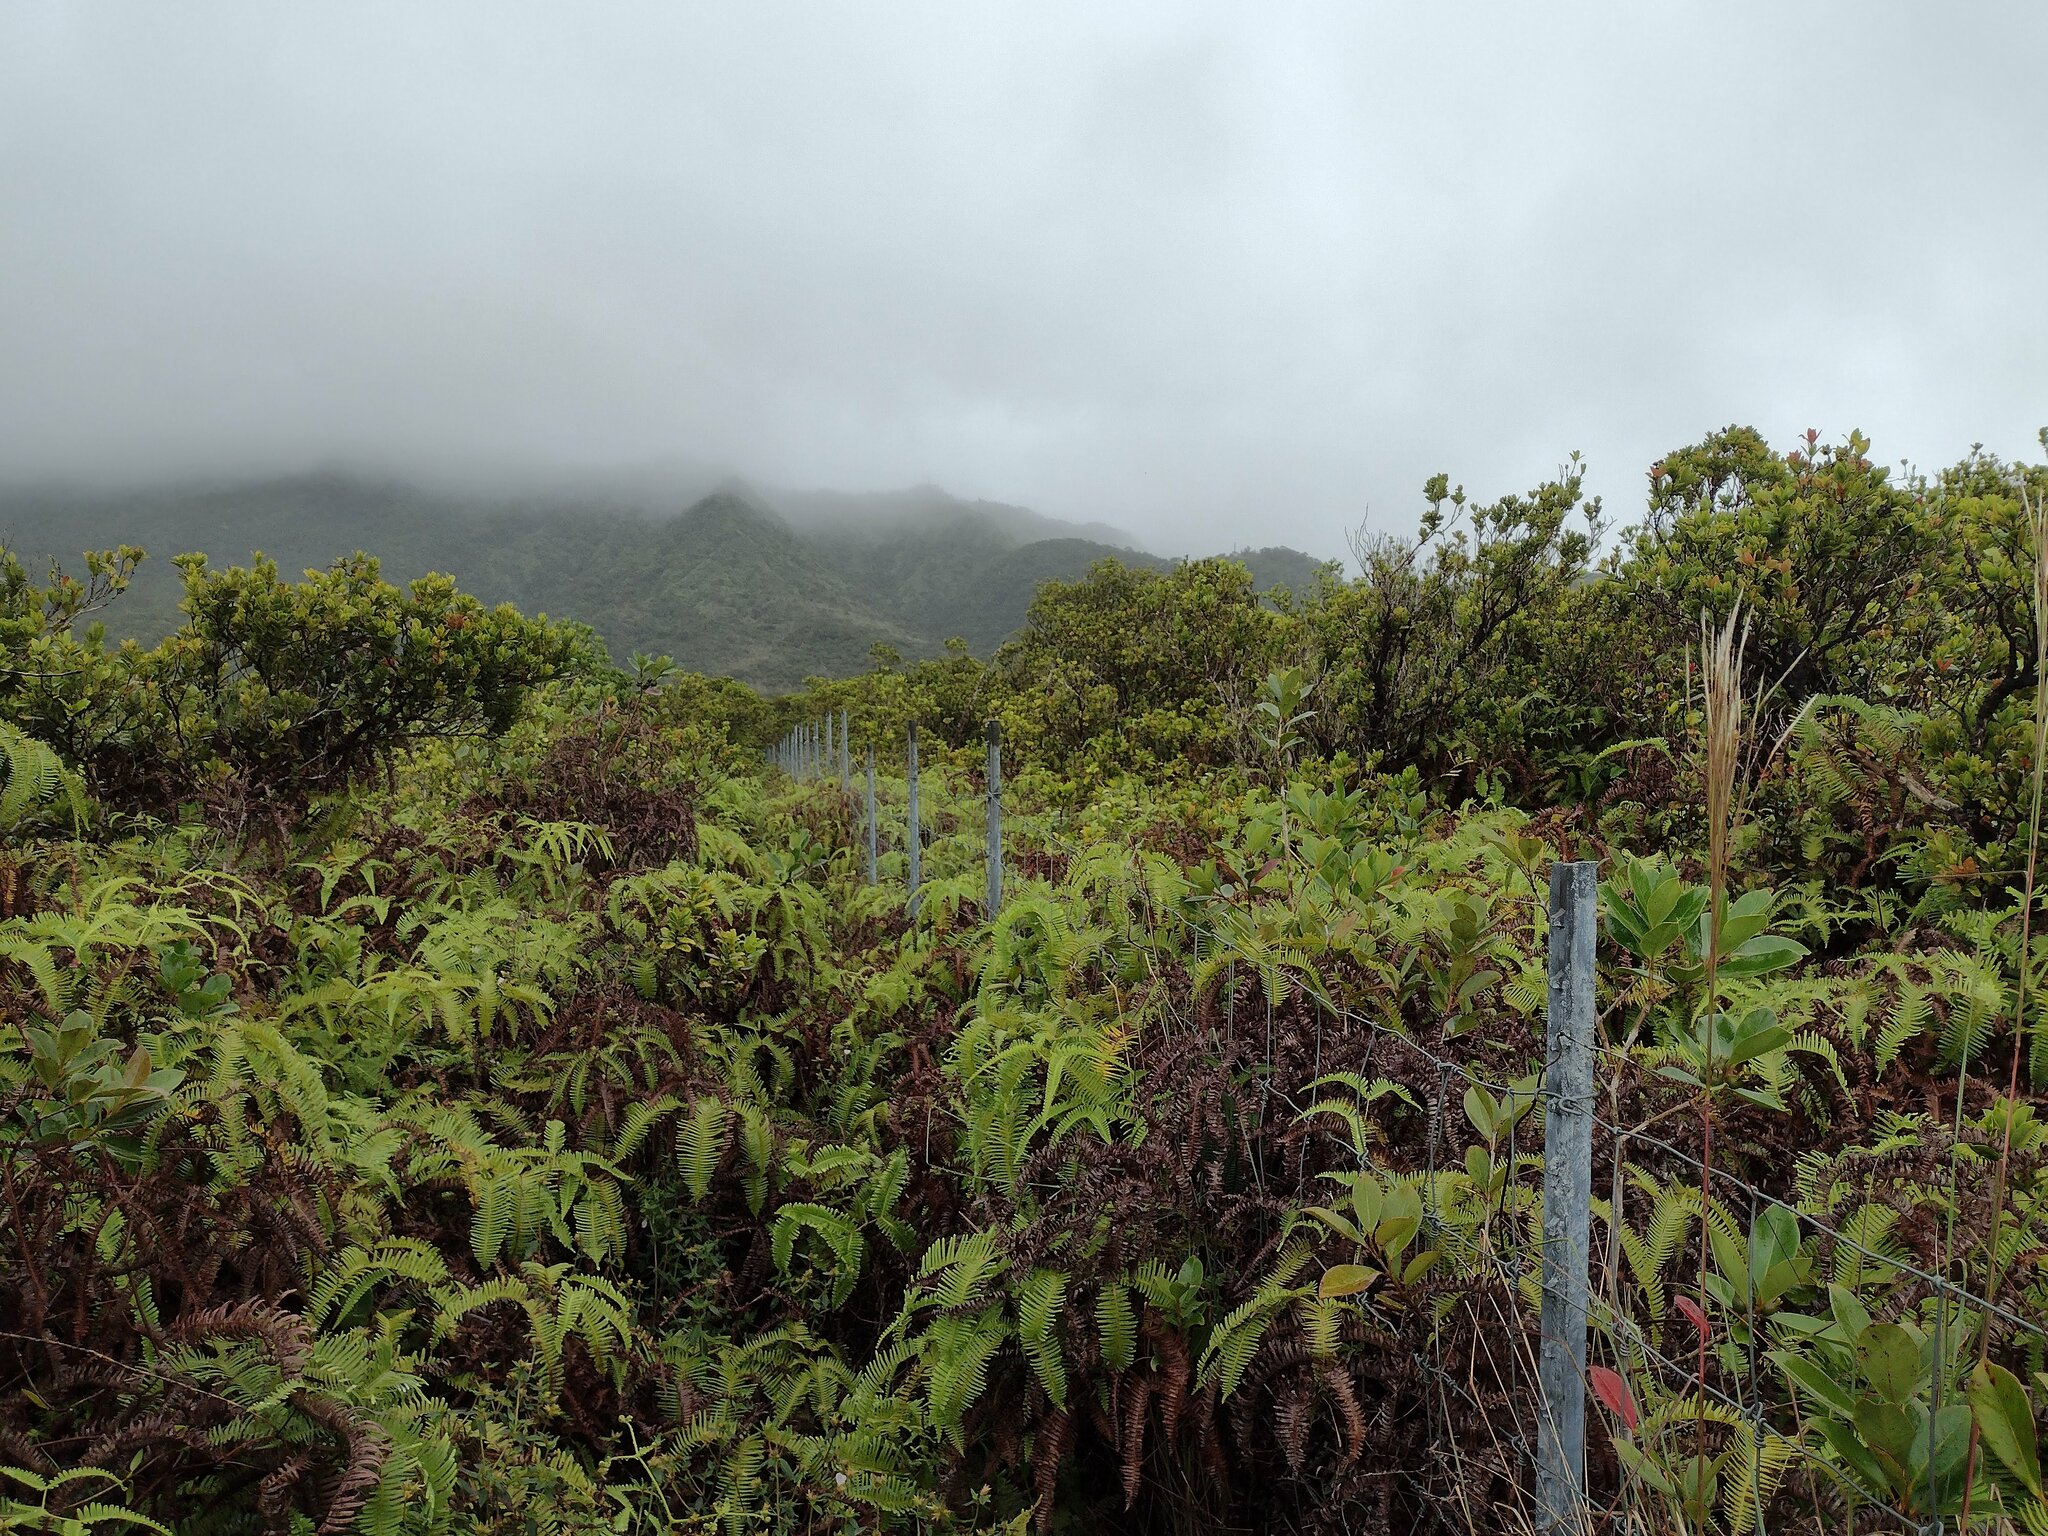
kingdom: Plantae
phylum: Tracheophyta
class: Polypodiopsida
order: Gleicheniales
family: Gleicheniaceae
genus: Dicranopteris
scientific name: Dicranopteris linearis
